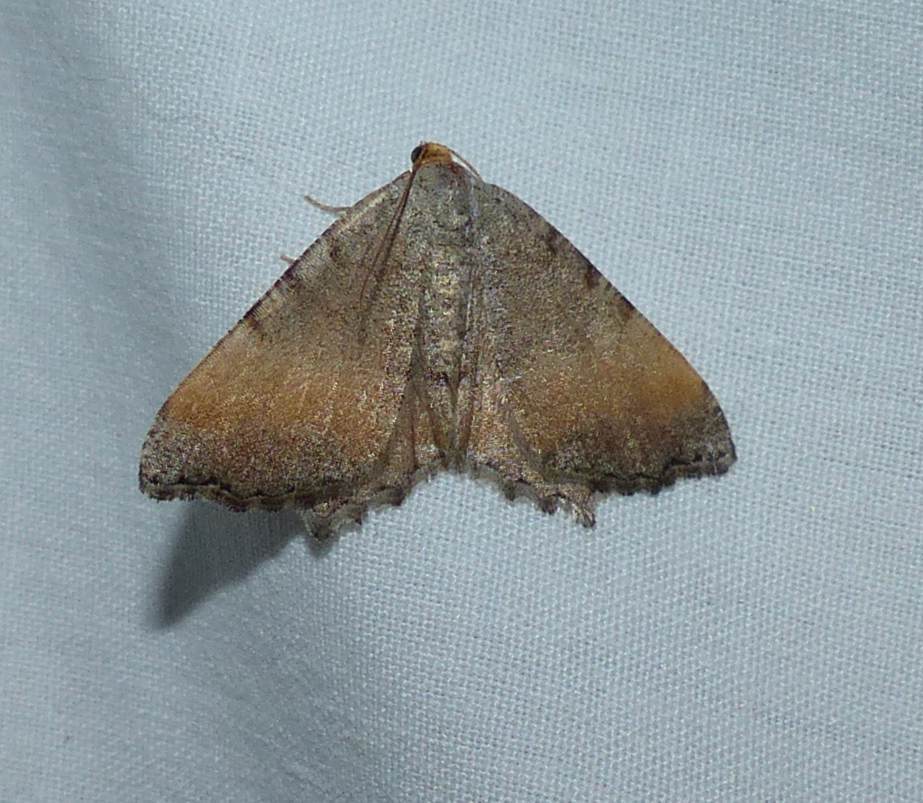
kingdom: Animalia
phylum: Arthropoda
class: Insecta
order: Lepidoptera
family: Geometridae
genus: Macaria
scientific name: Macaria transitaria
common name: Blurry chocolate angle
